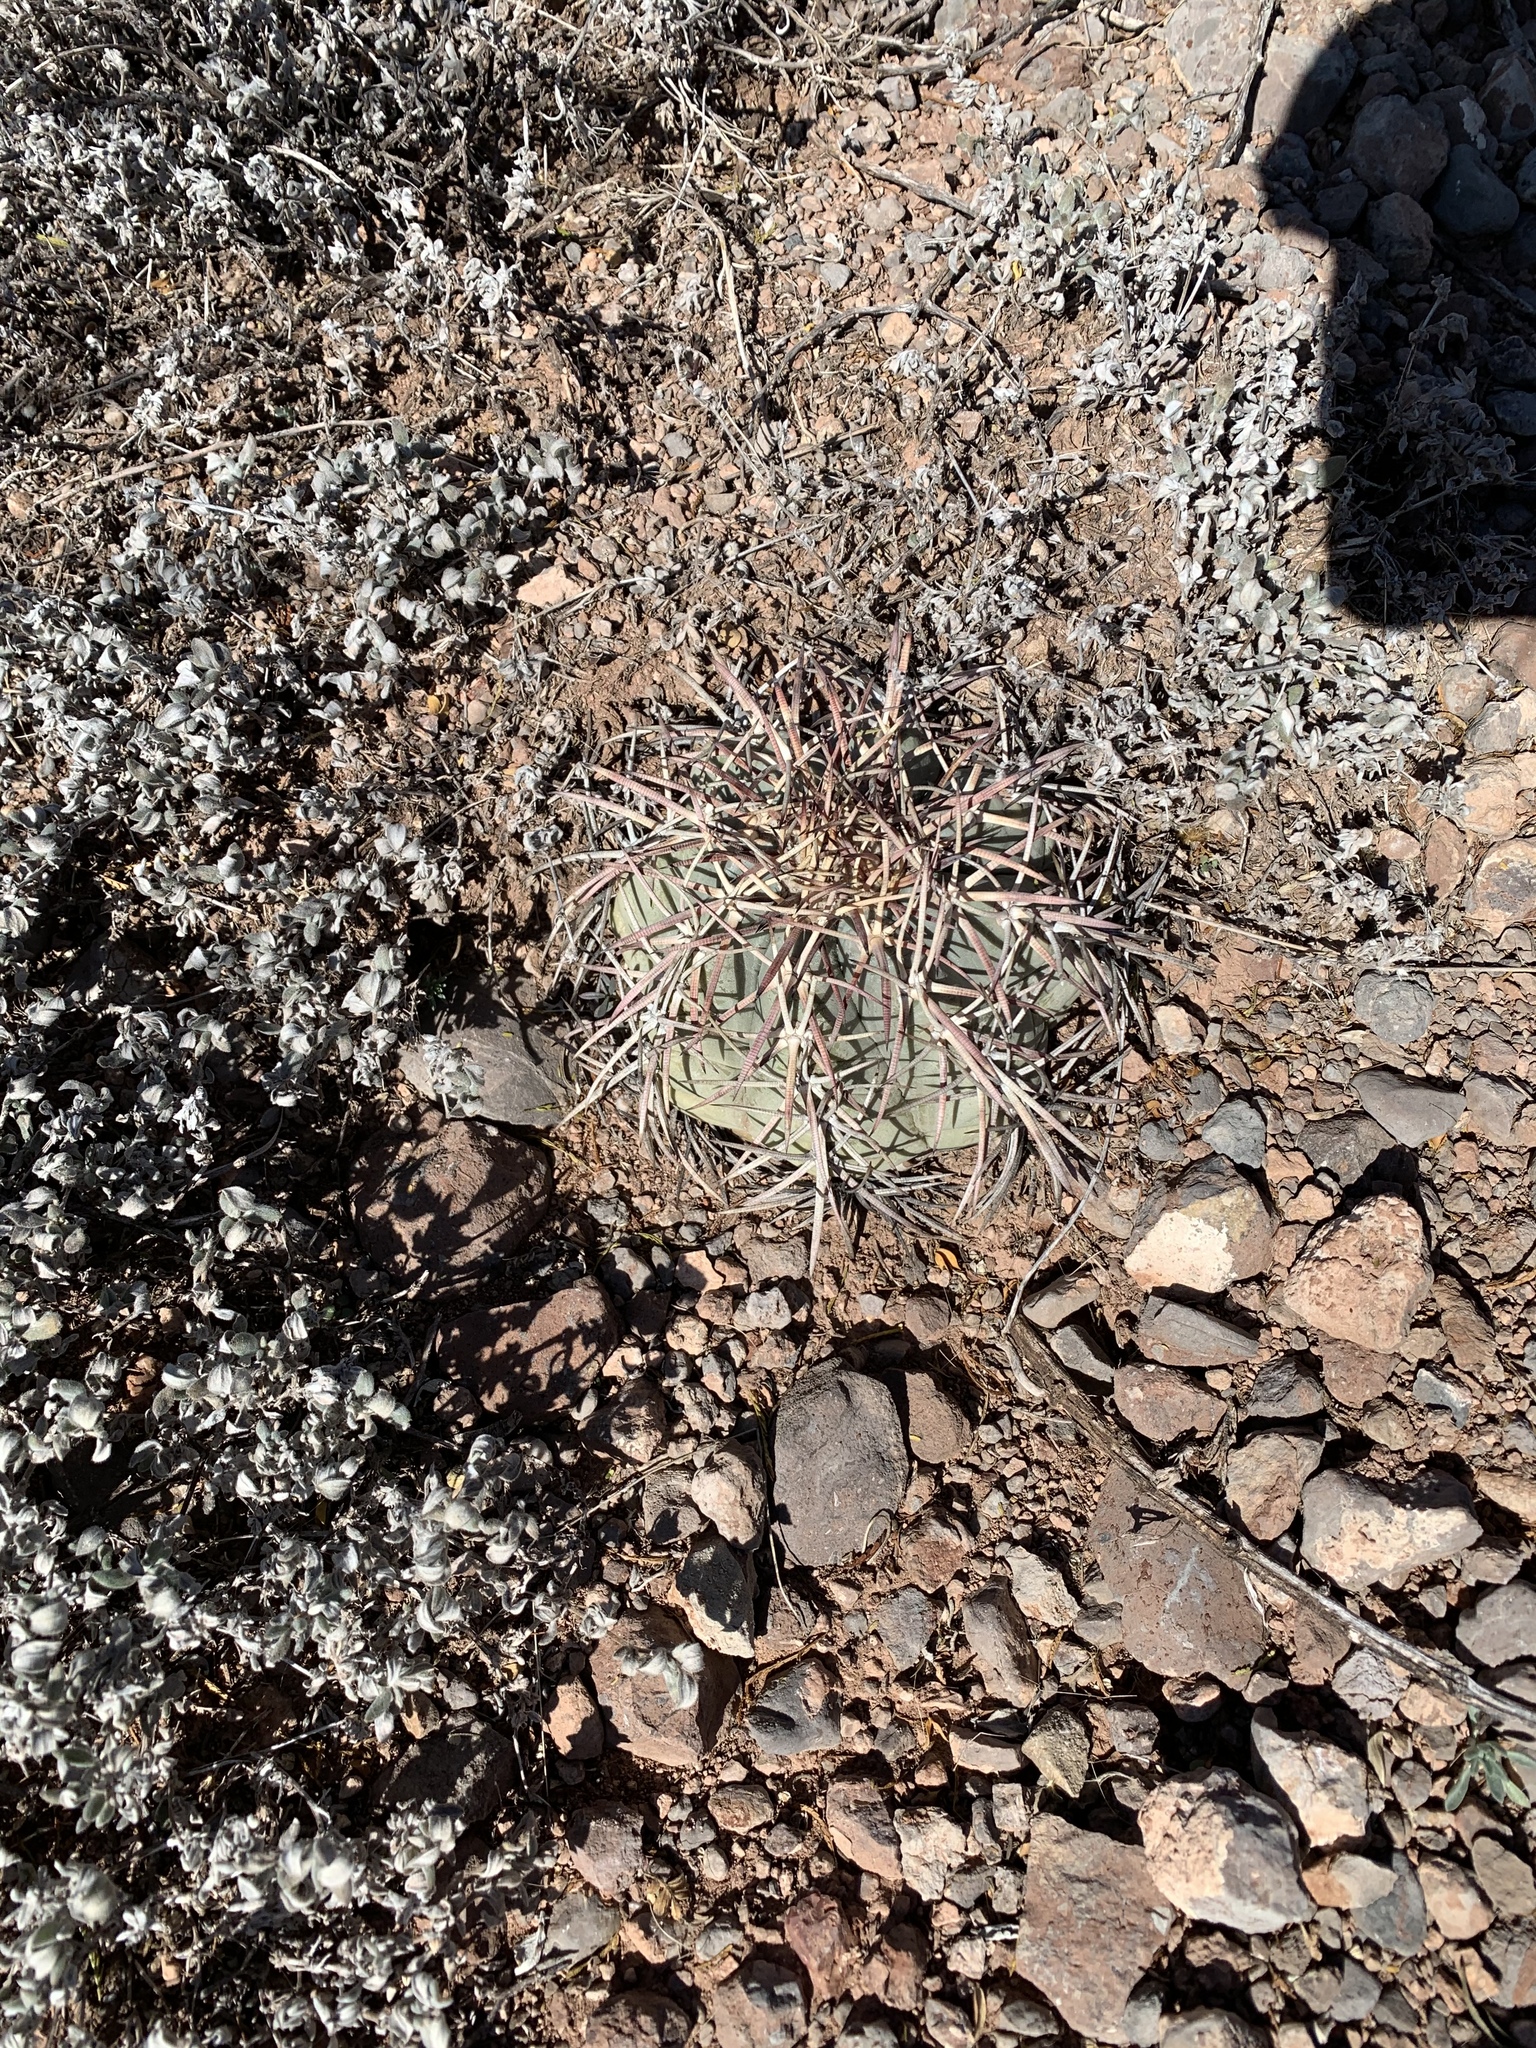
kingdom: Plantae
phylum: Tracheophyta
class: Magnoliopsida
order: Caryophyllales
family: Cactaceae
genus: Echinocactus
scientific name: Echinocactus horizonthalonius
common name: Devilshead
